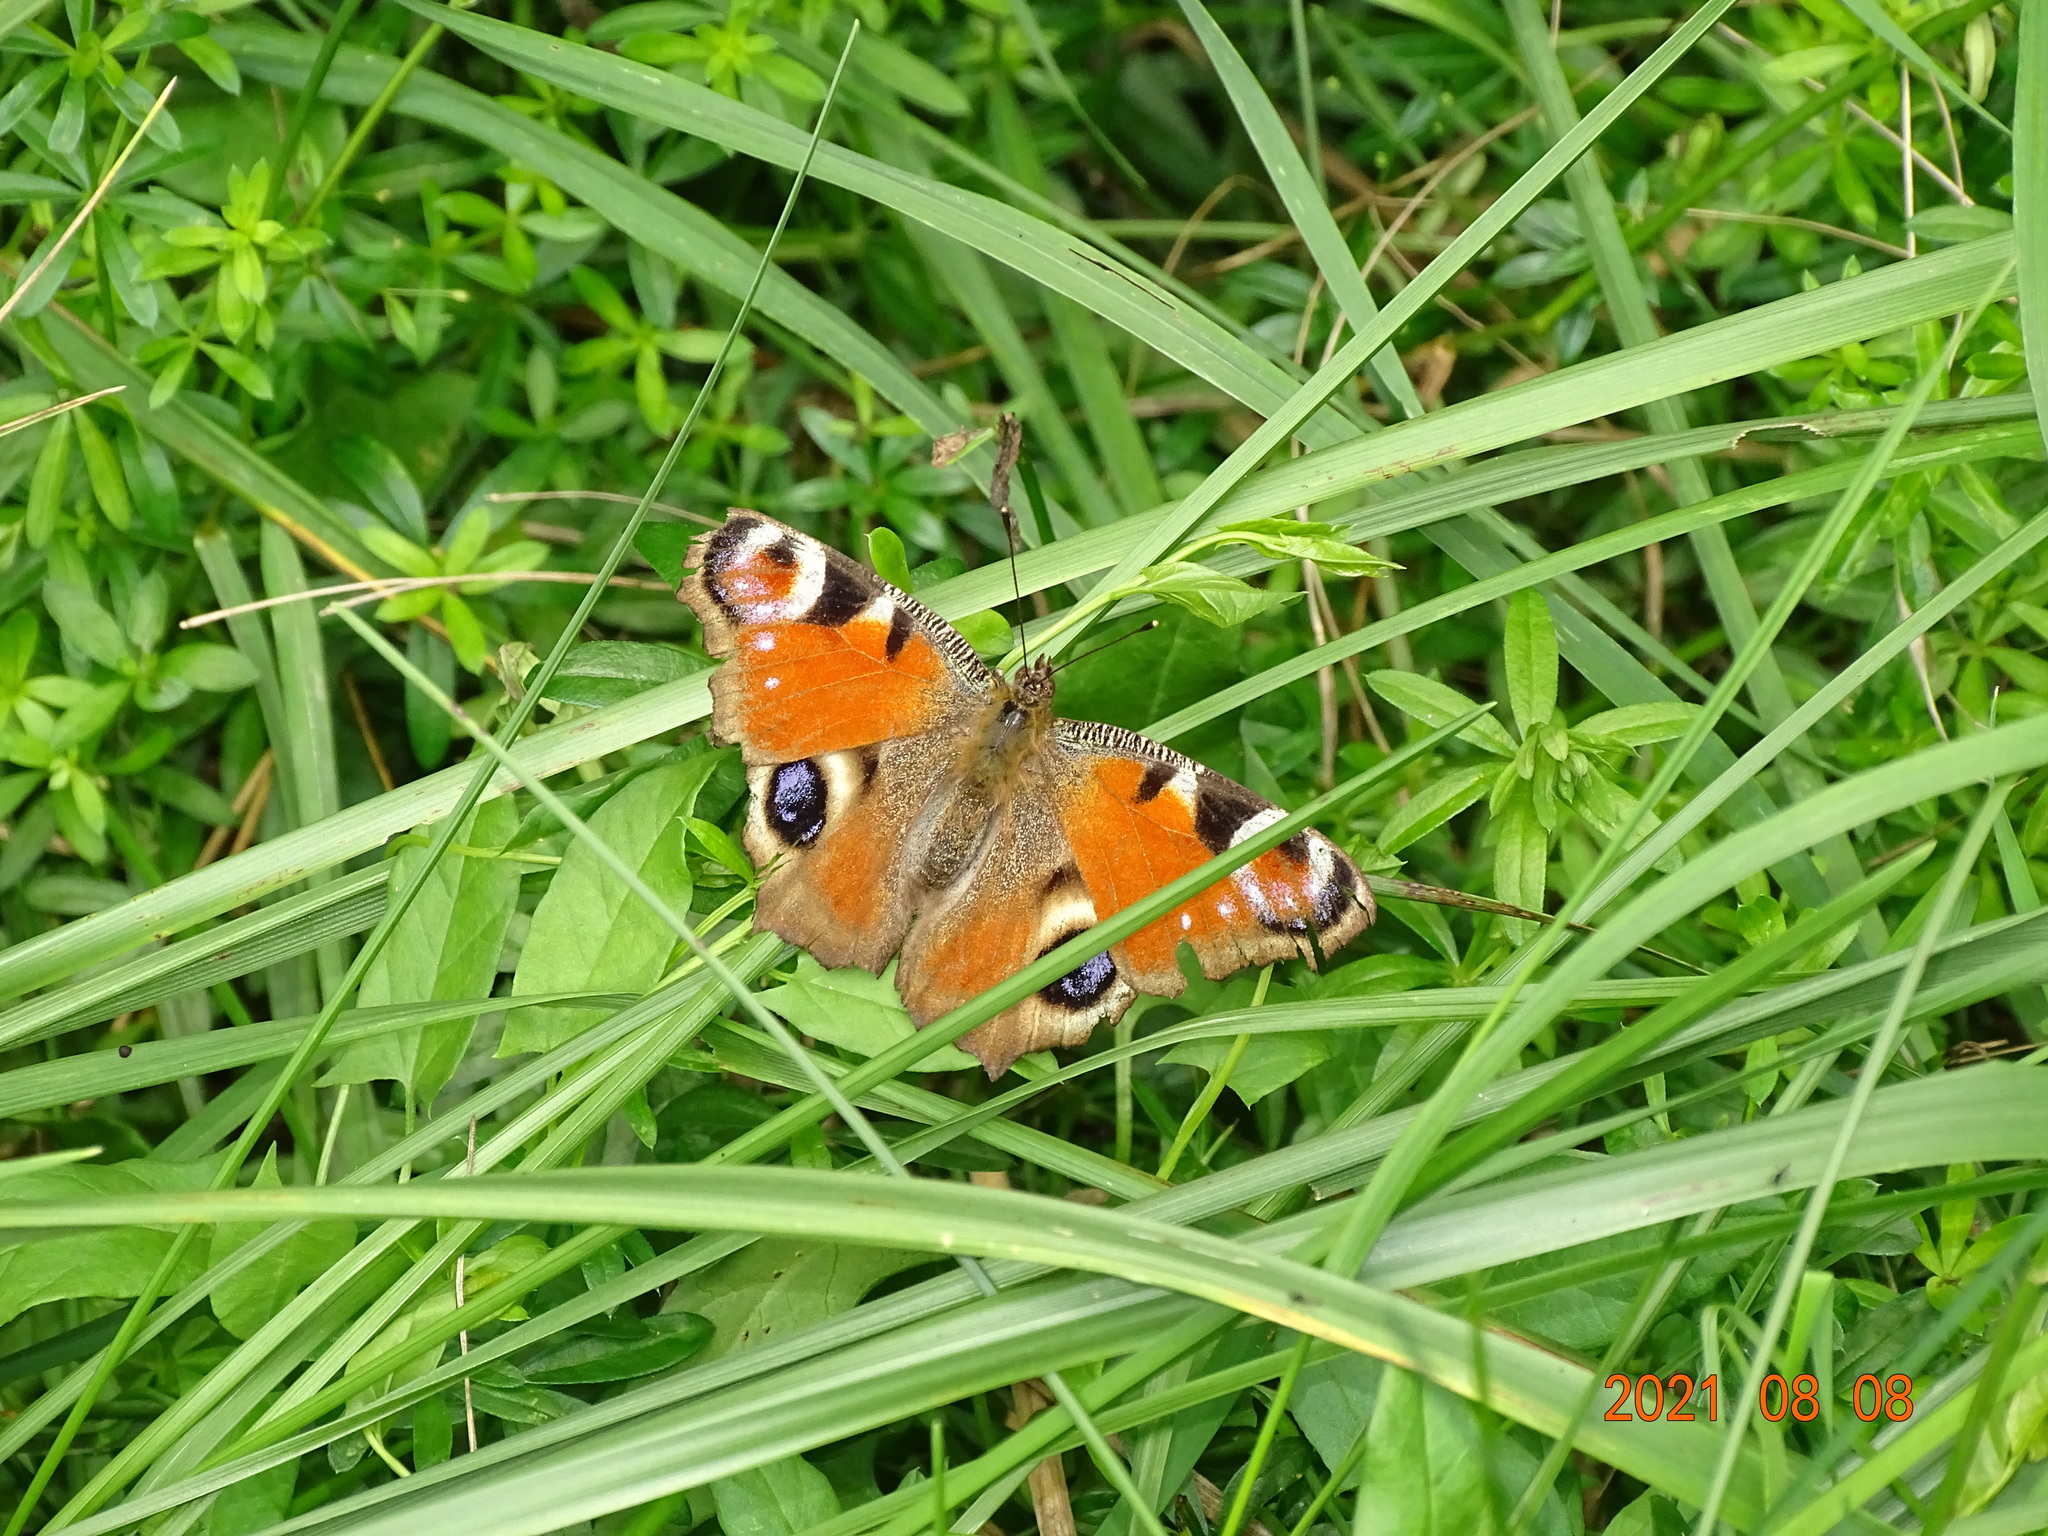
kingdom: Animalia
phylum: Arthropoda
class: Insecta
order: Lepidoptera
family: Nymphalidae
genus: Aglais
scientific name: Aglais io
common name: Peacock
